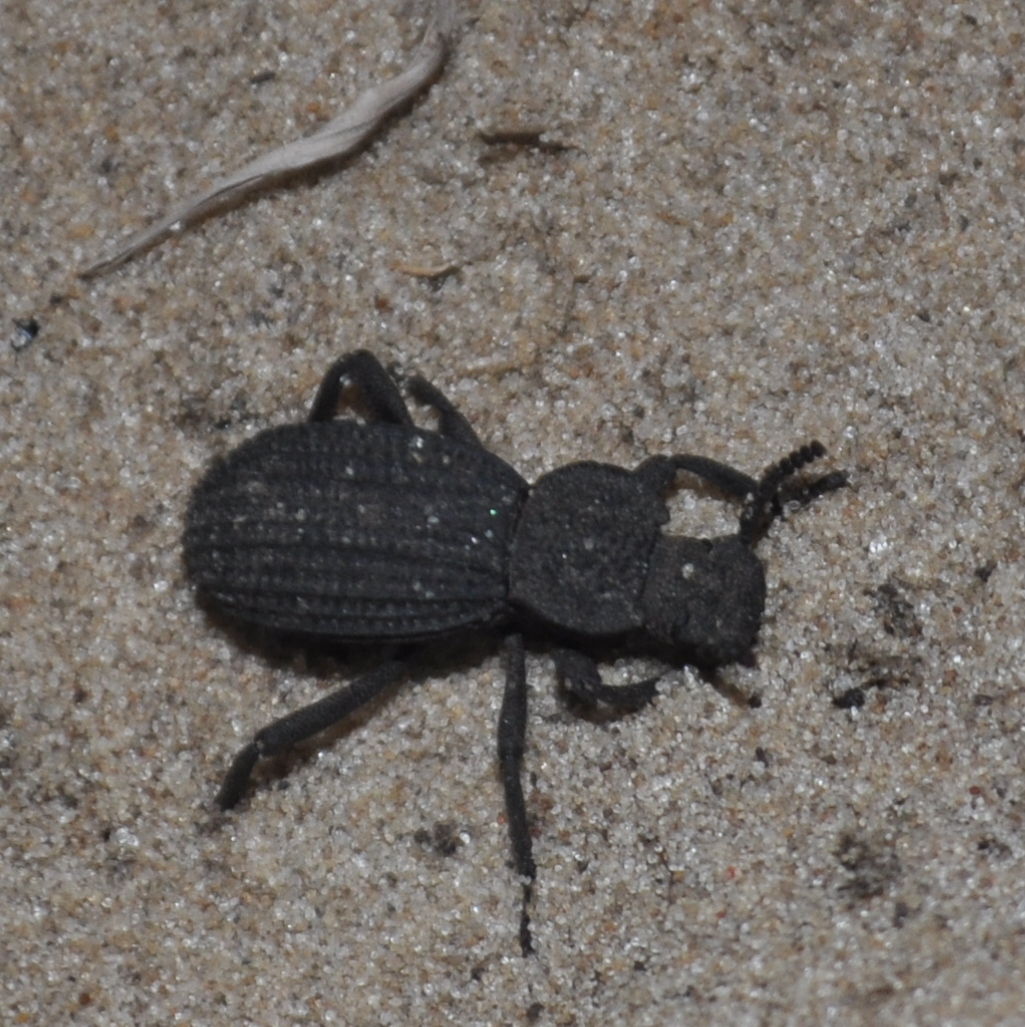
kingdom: Animalia
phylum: Arthropoda
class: Insecta
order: Coleoptera
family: Tenebrionidae
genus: Leptynoderes
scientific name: Leptynoderes
